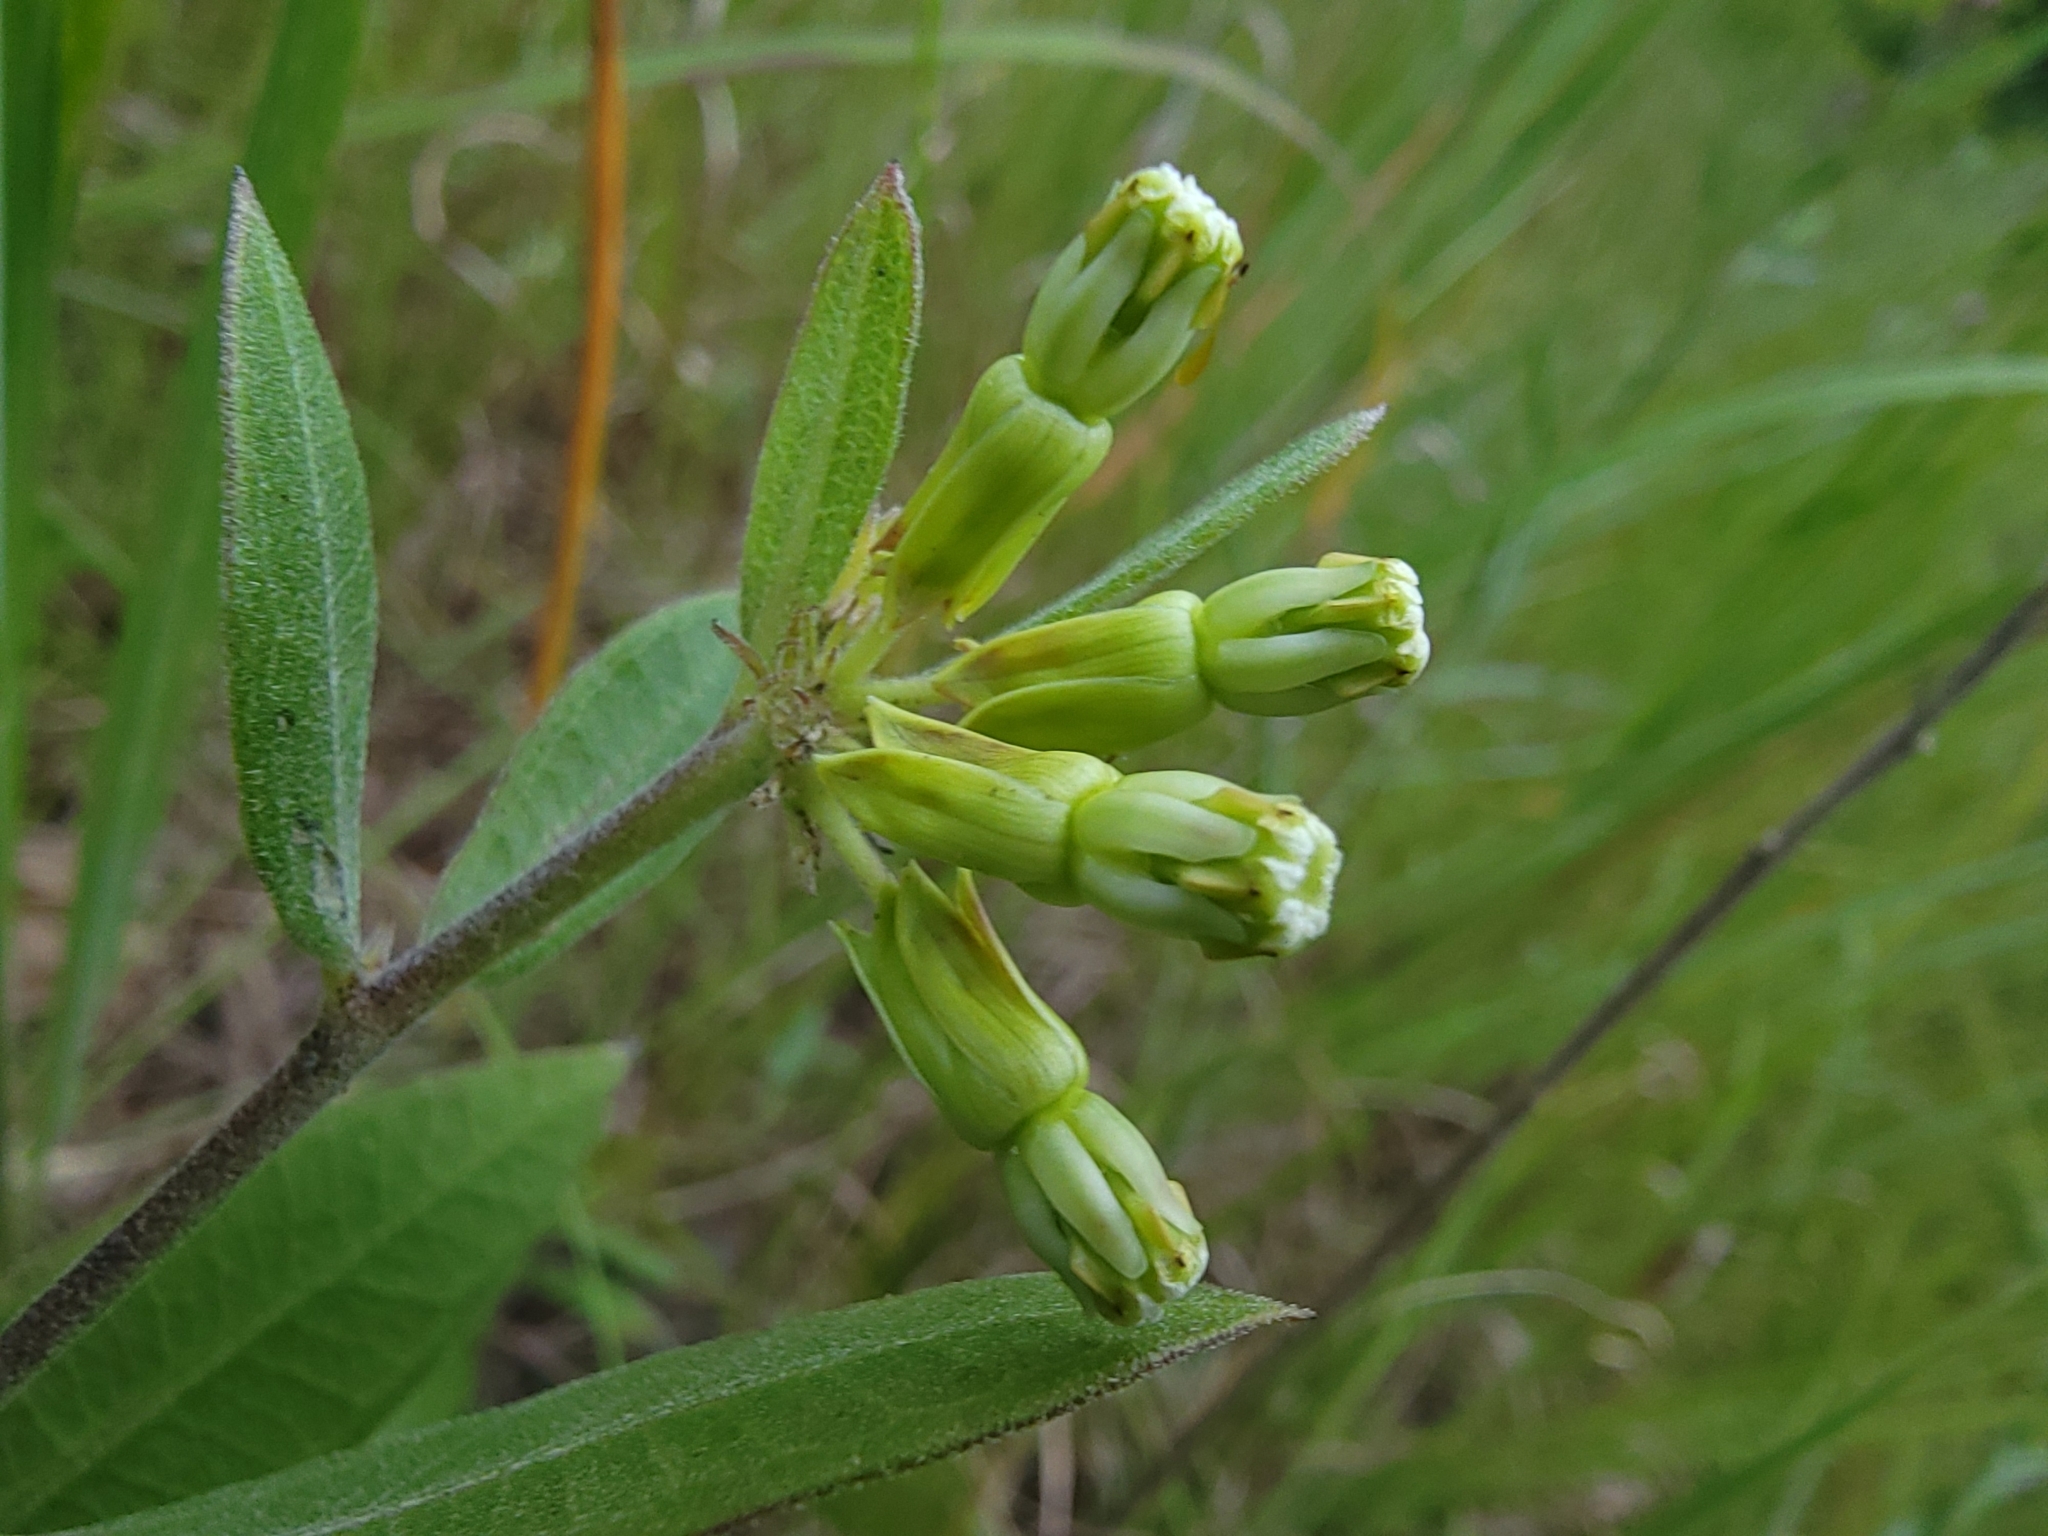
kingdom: Plantae
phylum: Tracheophyta
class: Magnoliopsida
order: Gentianales
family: Apocynaceae
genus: Asclepias
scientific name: Asclepias viridiflora
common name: Green comet milkweed
